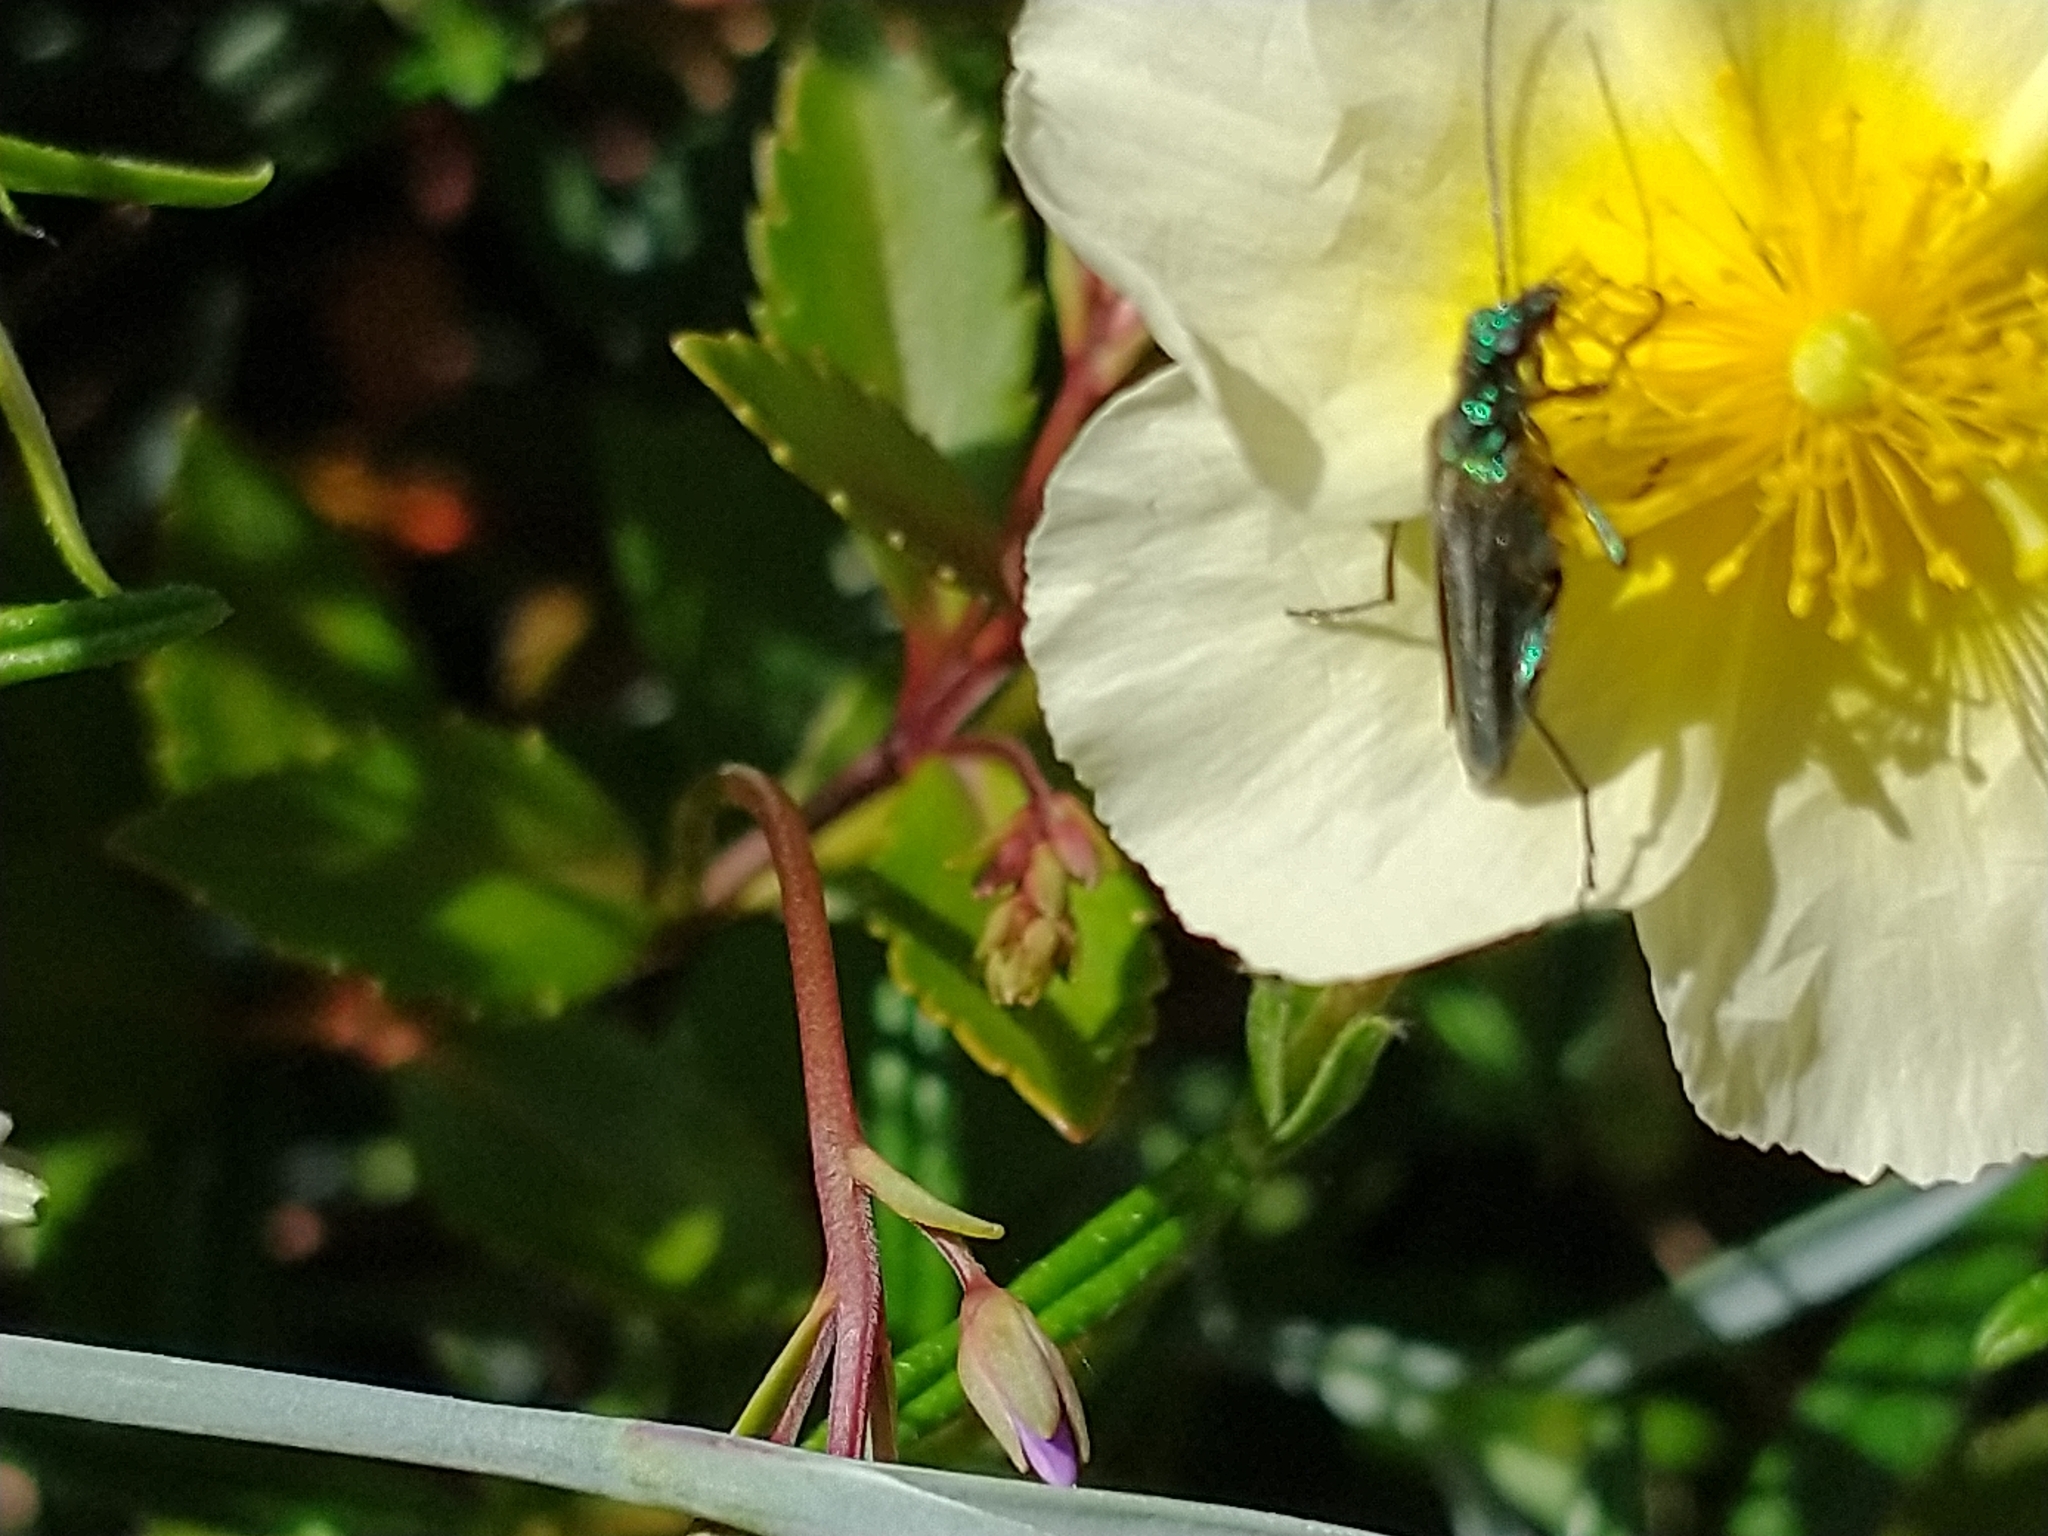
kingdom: Animalia
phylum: Arthropoda
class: Insecta
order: Coleoptera
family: Oedemeridae
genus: Oedemera
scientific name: Oedemera nobilis
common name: Swollen-thighed beetle
